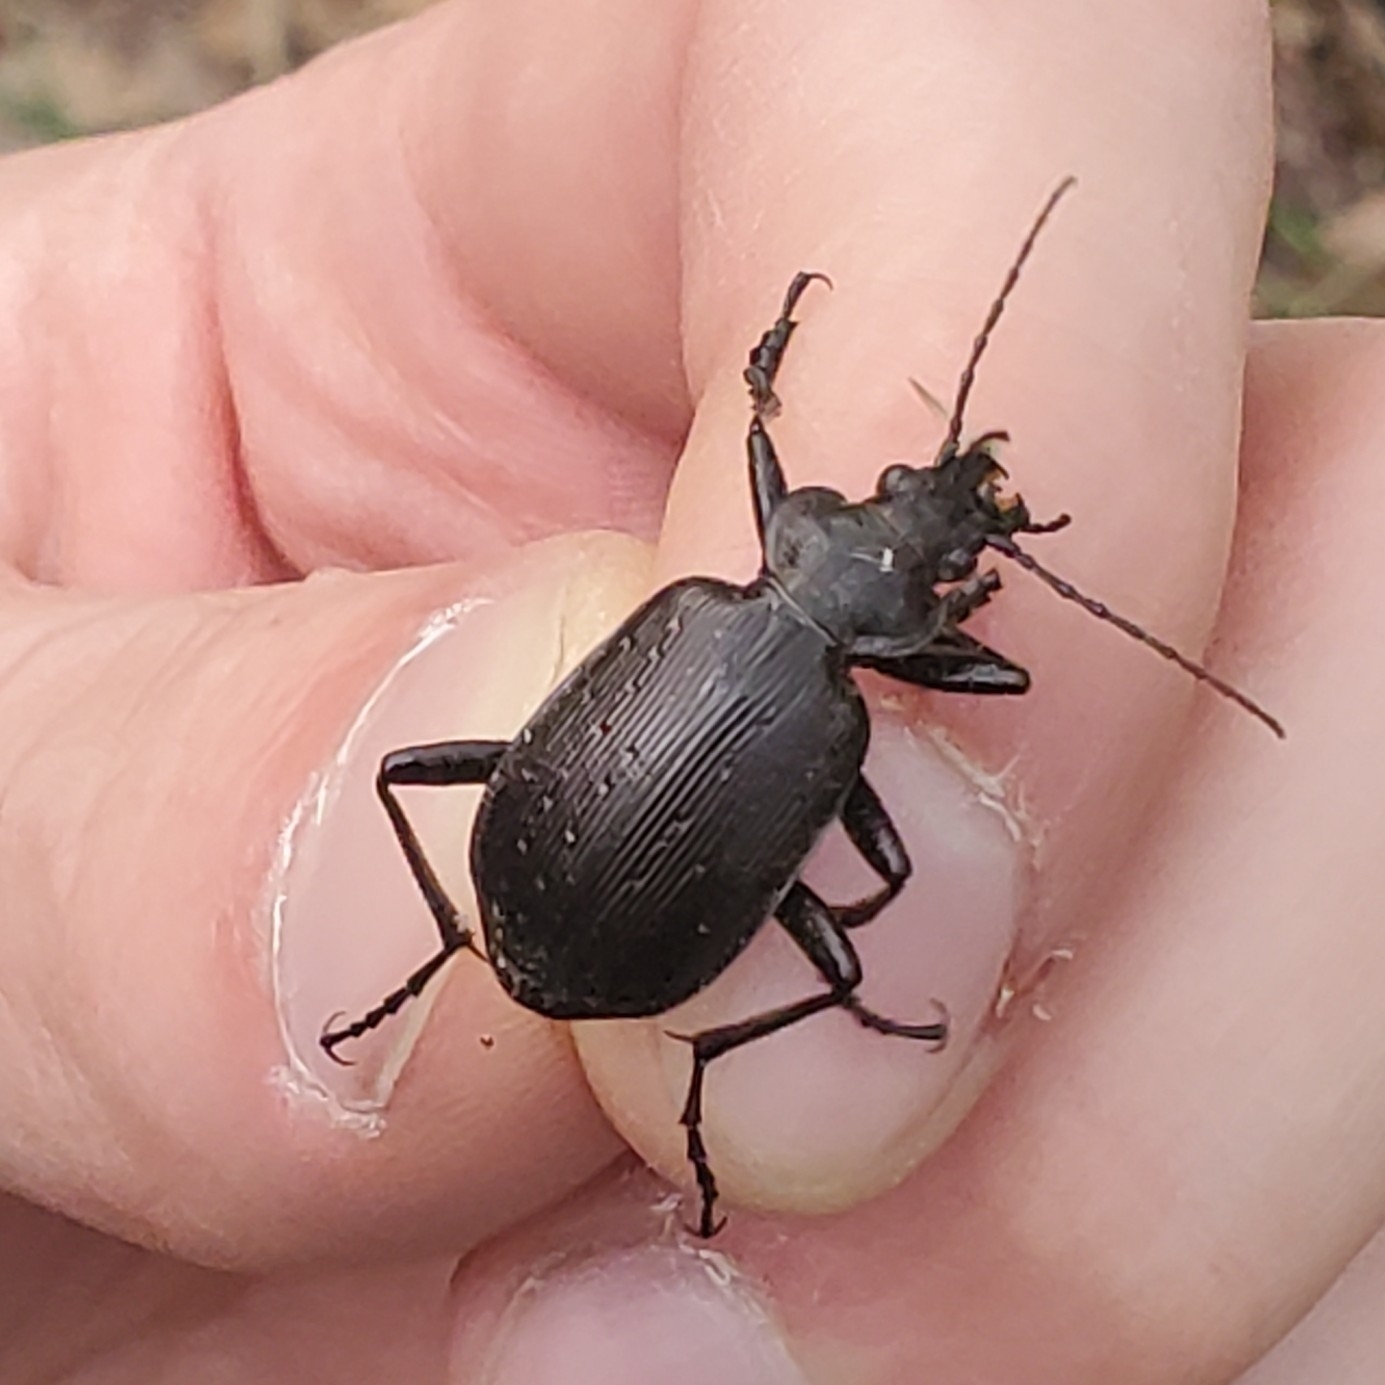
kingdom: Animalia
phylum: Arthropoda
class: Insecta
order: Coleoptera
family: Carabidae
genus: Calosoma
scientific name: Calosoma frigidum
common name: Cold-country caterpillar hunter
